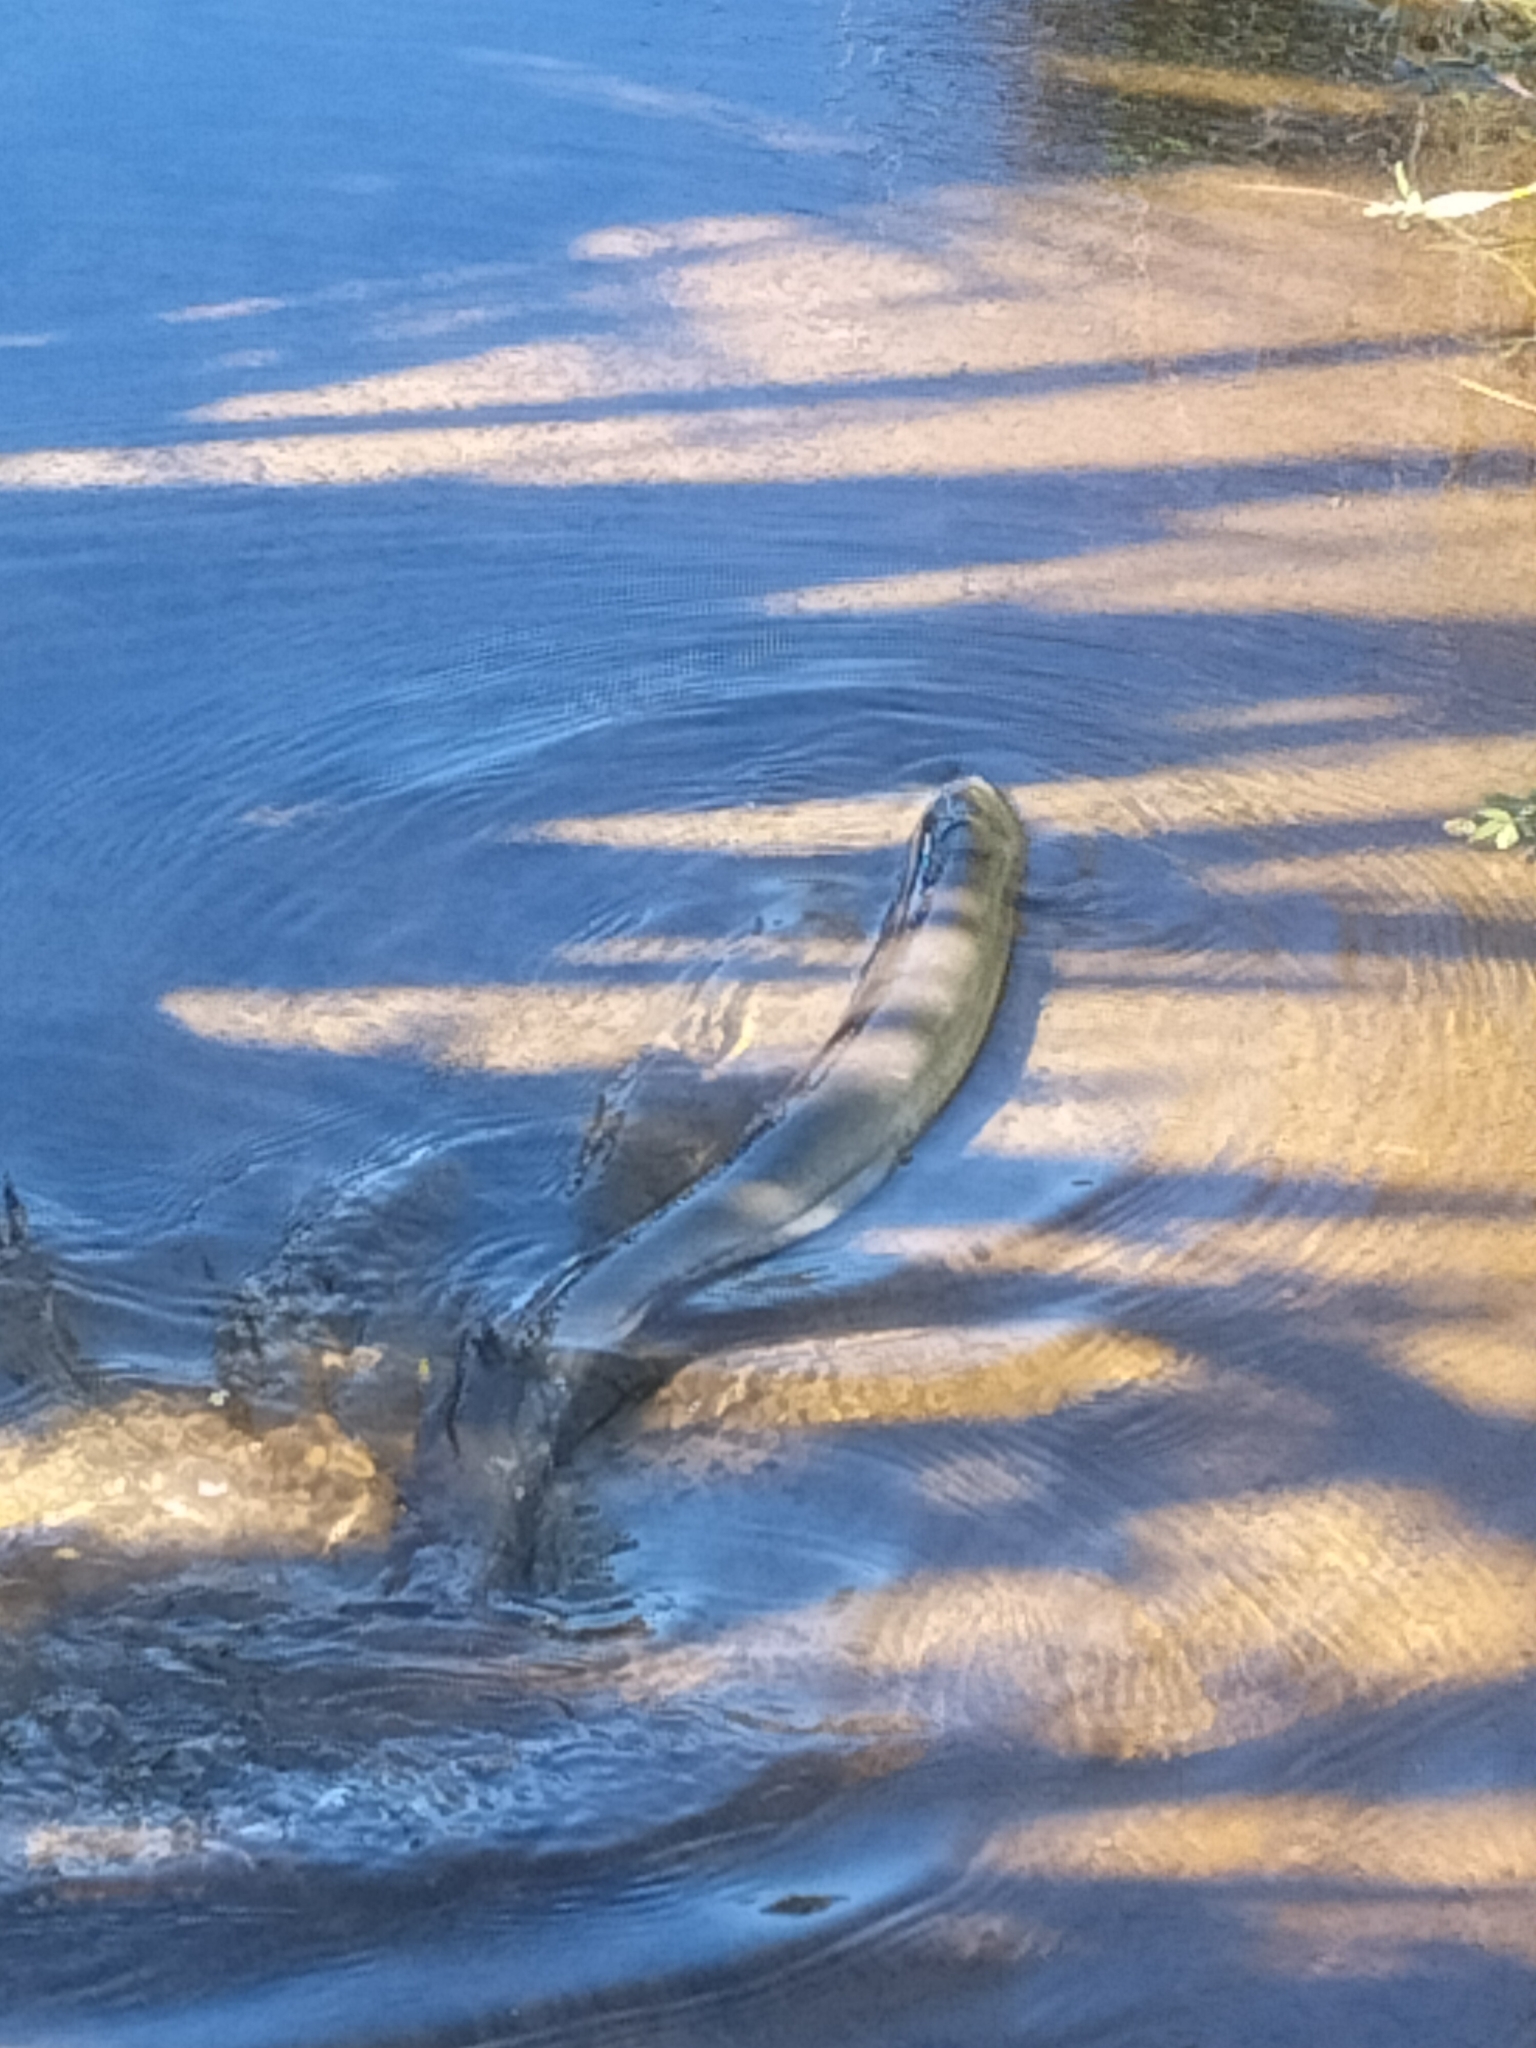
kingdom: Animalia
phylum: Chordata
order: Anguilliformes
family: Anguillidae
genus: Anguilla
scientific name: Anguilla australis
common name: Shortfin eel
